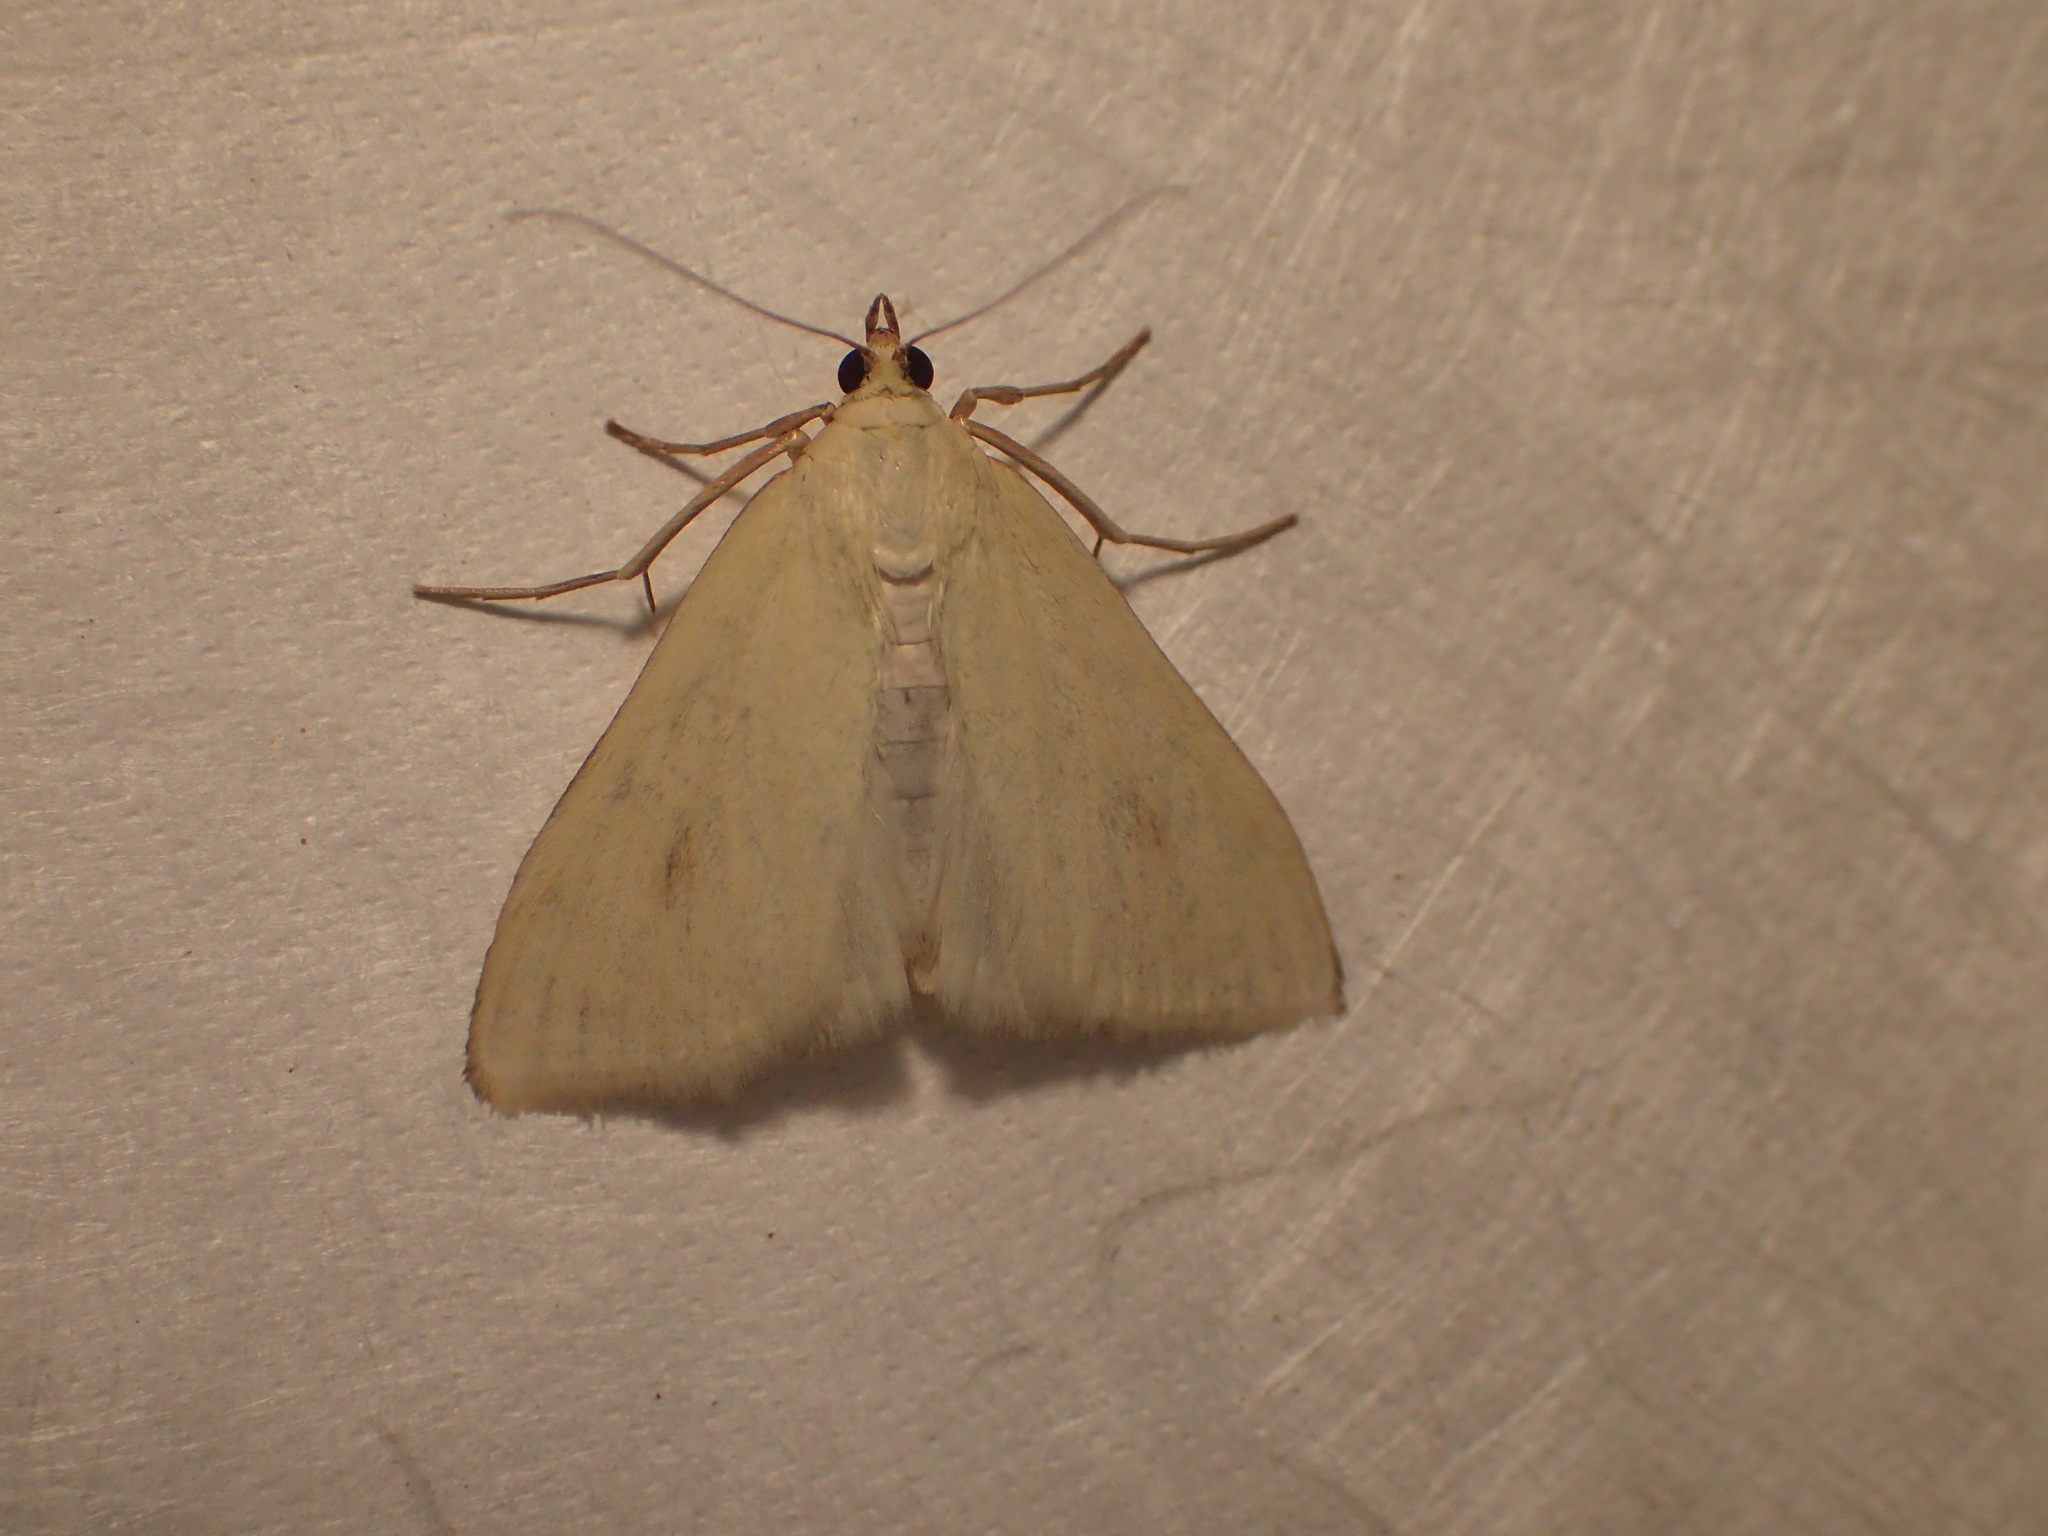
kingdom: Animalia
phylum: Arthropoda
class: Insecta
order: Lepidoptera
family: Crambidae
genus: Sitochroa
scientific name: Sitochroa palealis
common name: Greenish-yellow sitochroa moth
